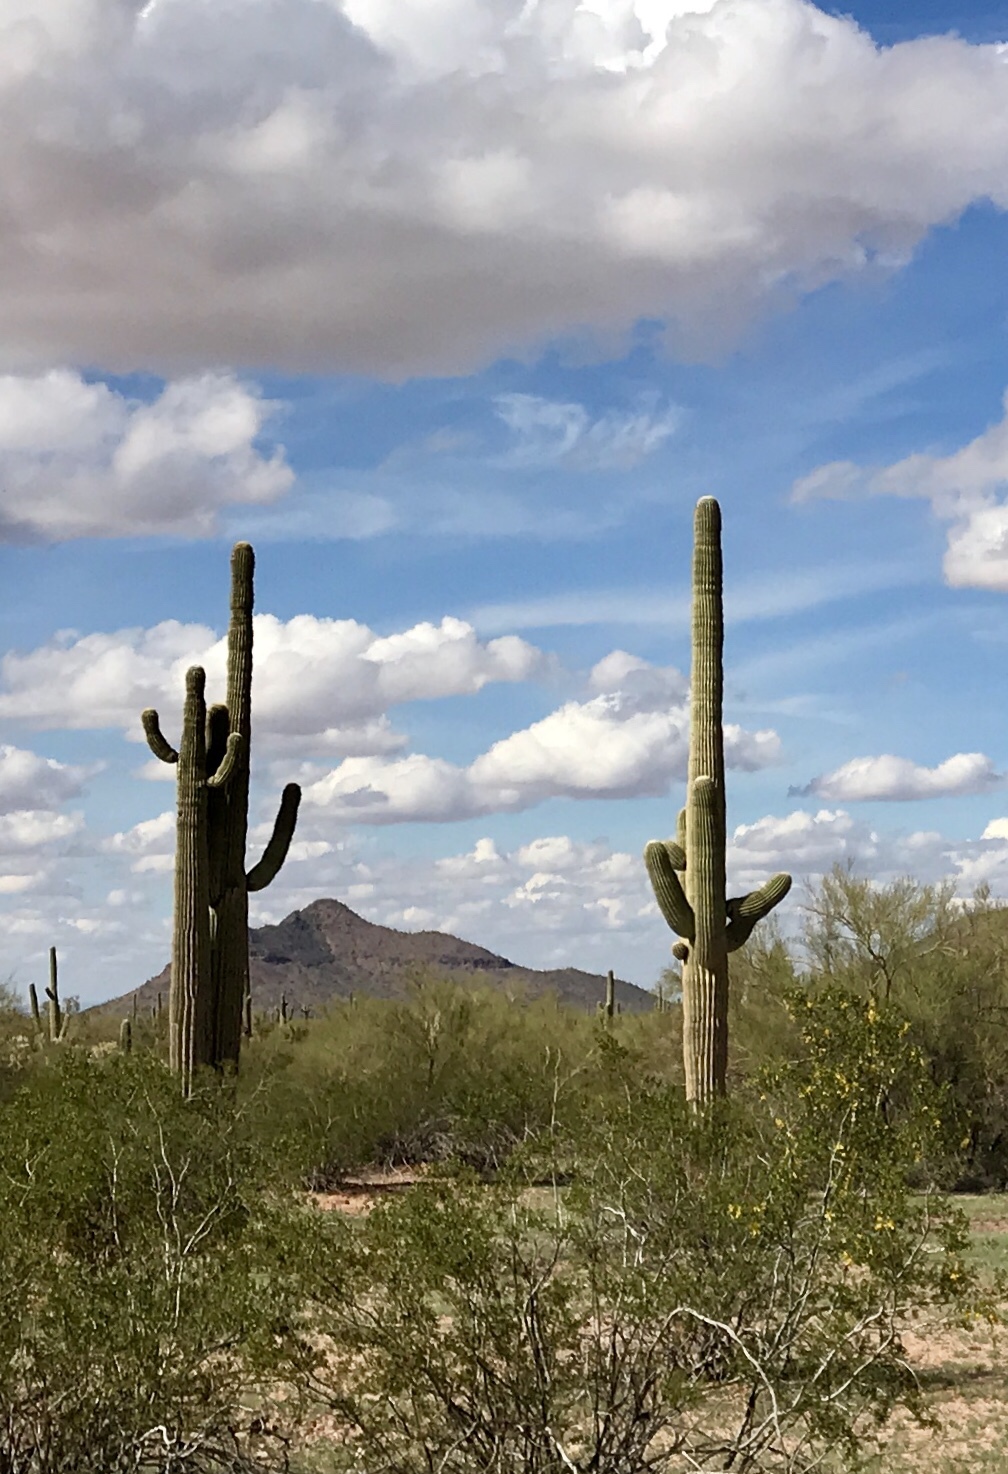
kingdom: Plantae
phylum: Tracheophyta
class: Magnoliopsida
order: Caryophyllales
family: Cactaceae
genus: Carnegiea
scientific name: Carnegiea gigantea
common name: Saguaro
